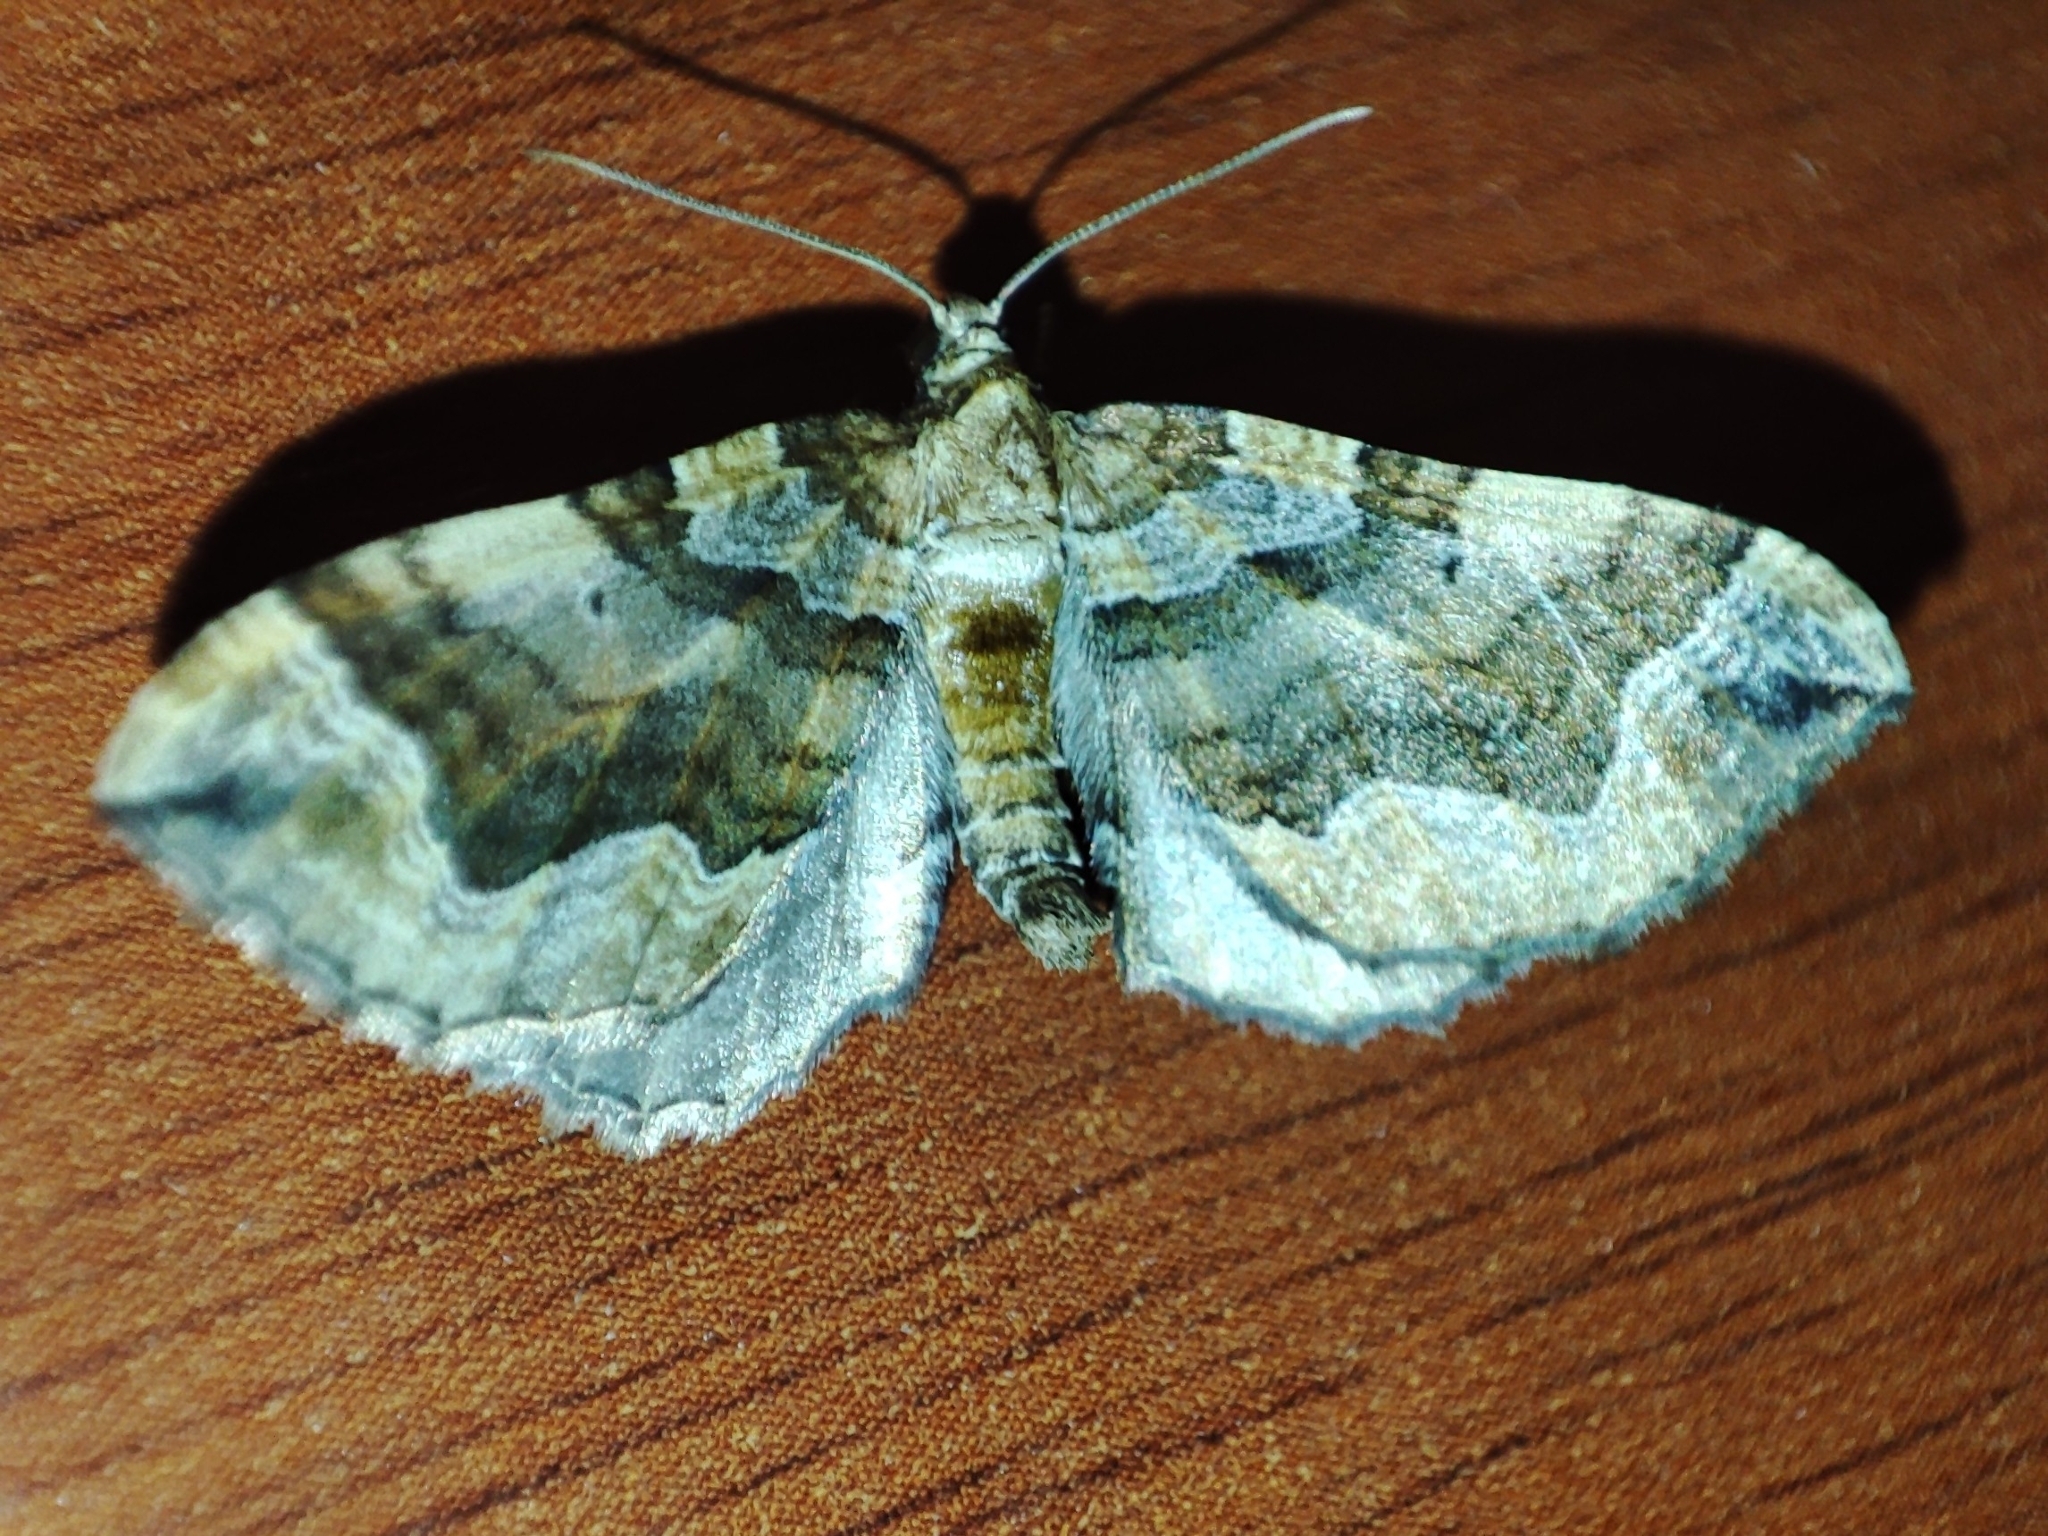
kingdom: Animalia
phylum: Arthropoda
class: Insecta
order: Lepidoptera
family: Geometridae
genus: Pelurga
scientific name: Pelurga comitata
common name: Dark spinach
